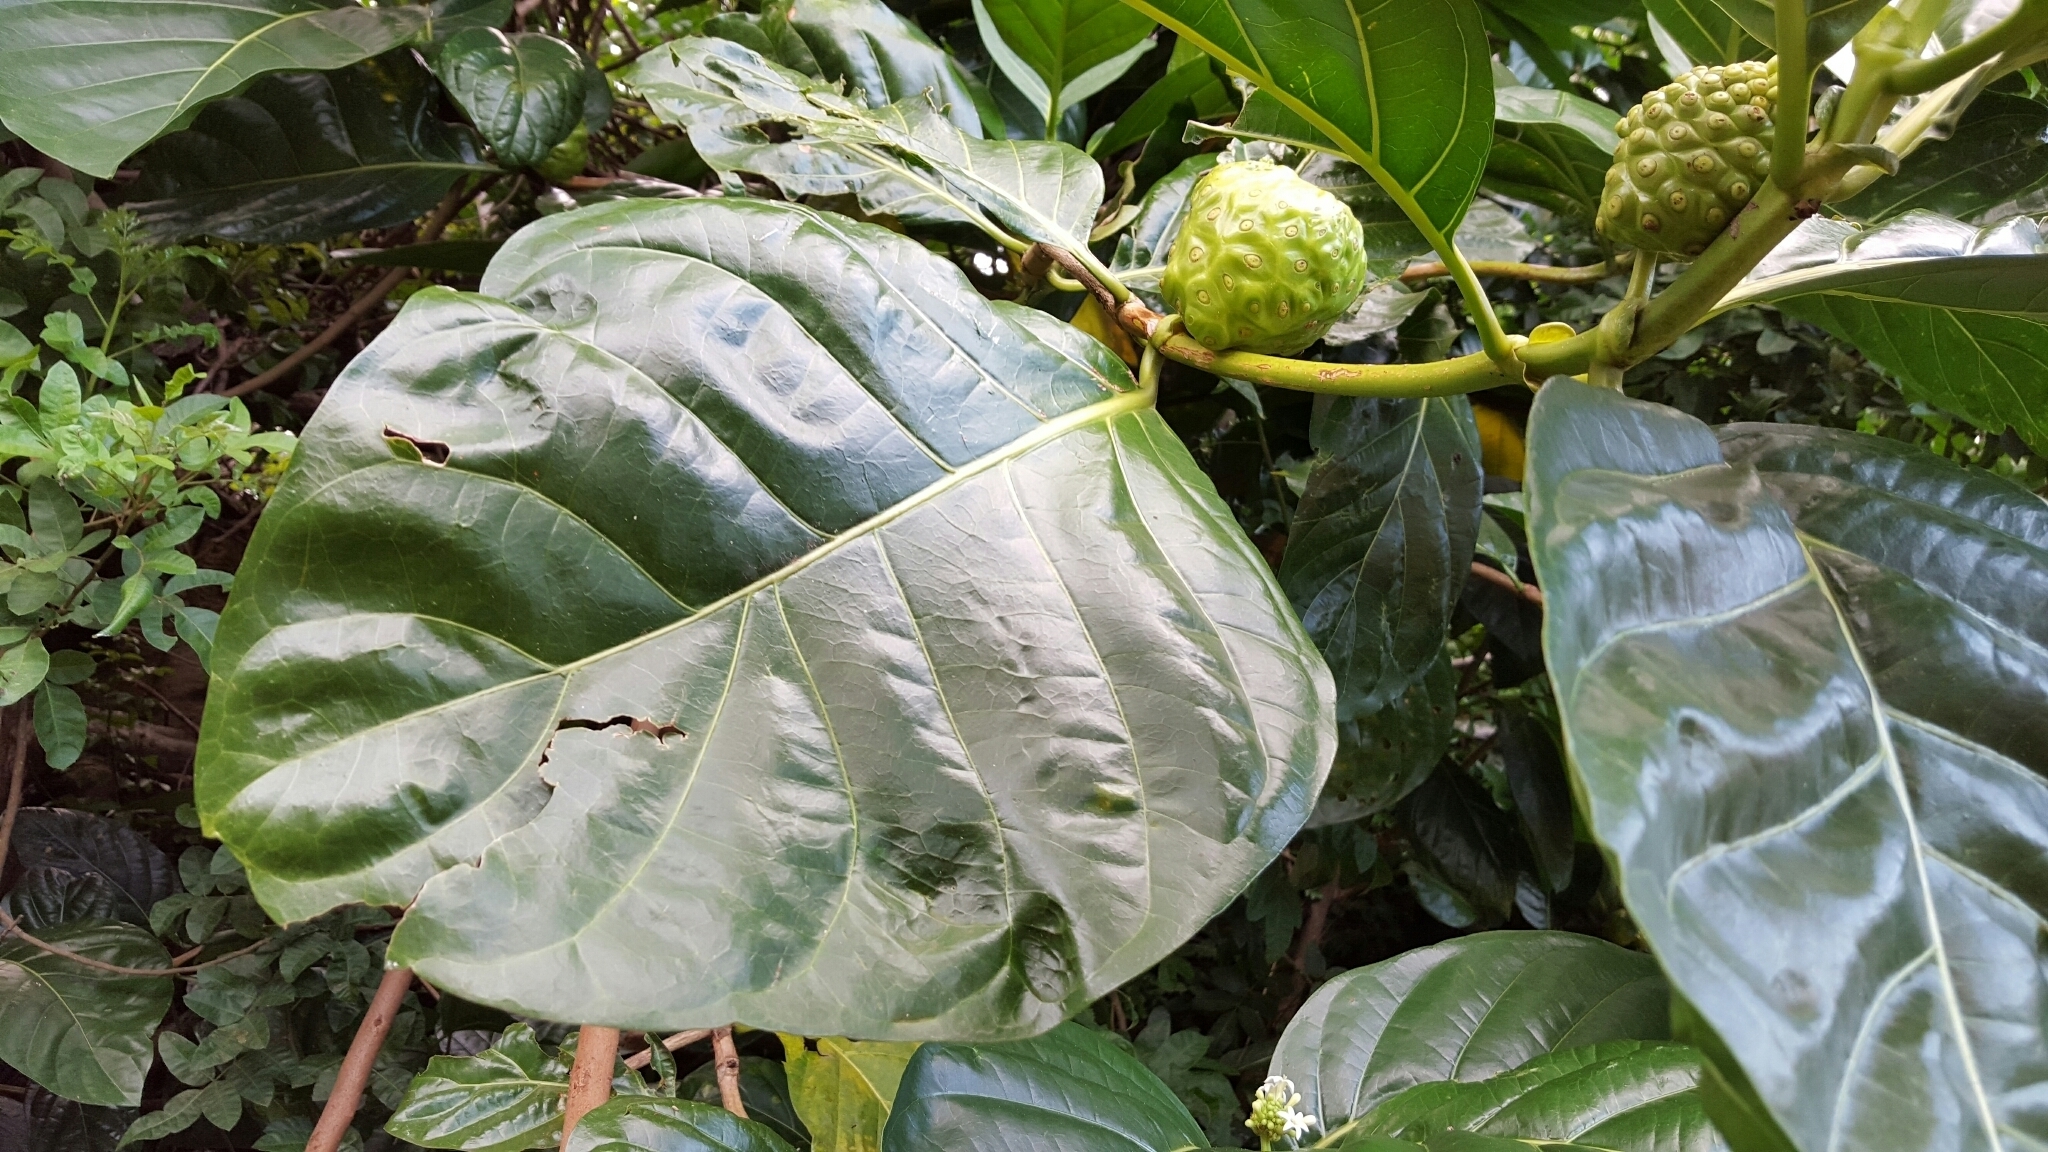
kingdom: Plantae
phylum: Tracheophyta
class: Magnoliopsida
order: Gentianales
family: Rubiaceae
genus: Morinda
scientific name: Morinda citrifolia
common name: Indian-mulberry
